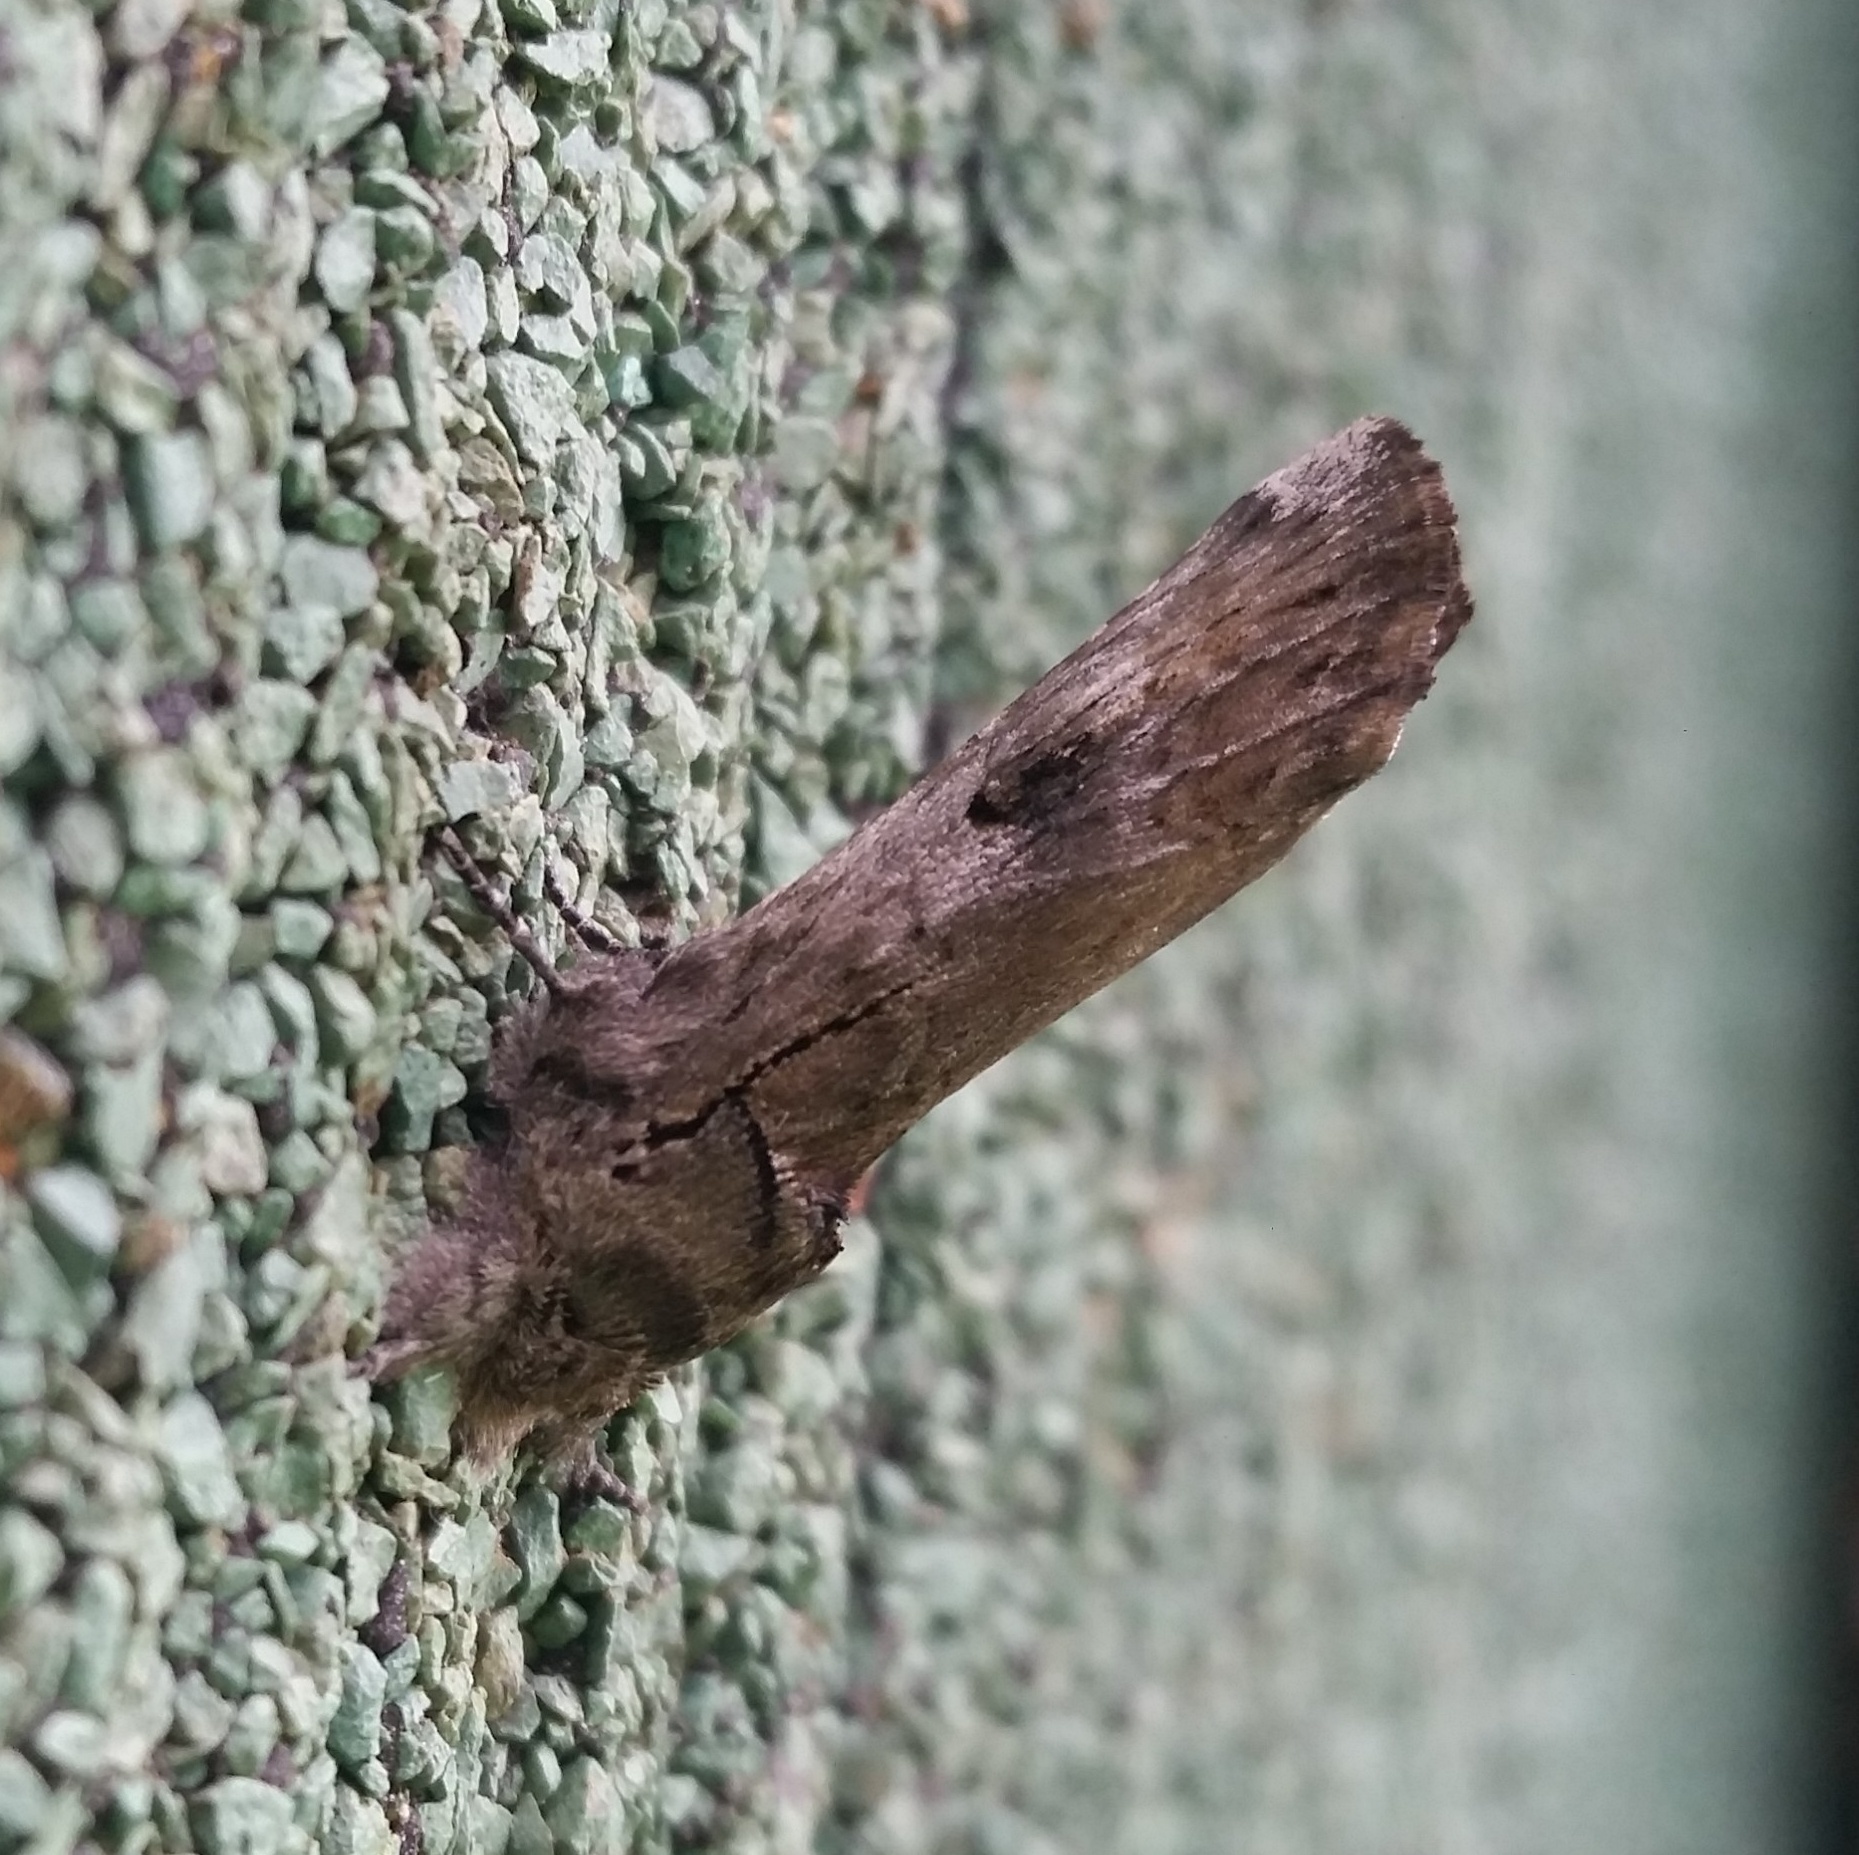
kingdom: Animalia
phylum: Arthropoda
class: Insecta
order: Lepidoptera
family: Notodontidae
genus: Schizura
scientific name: Schizura
